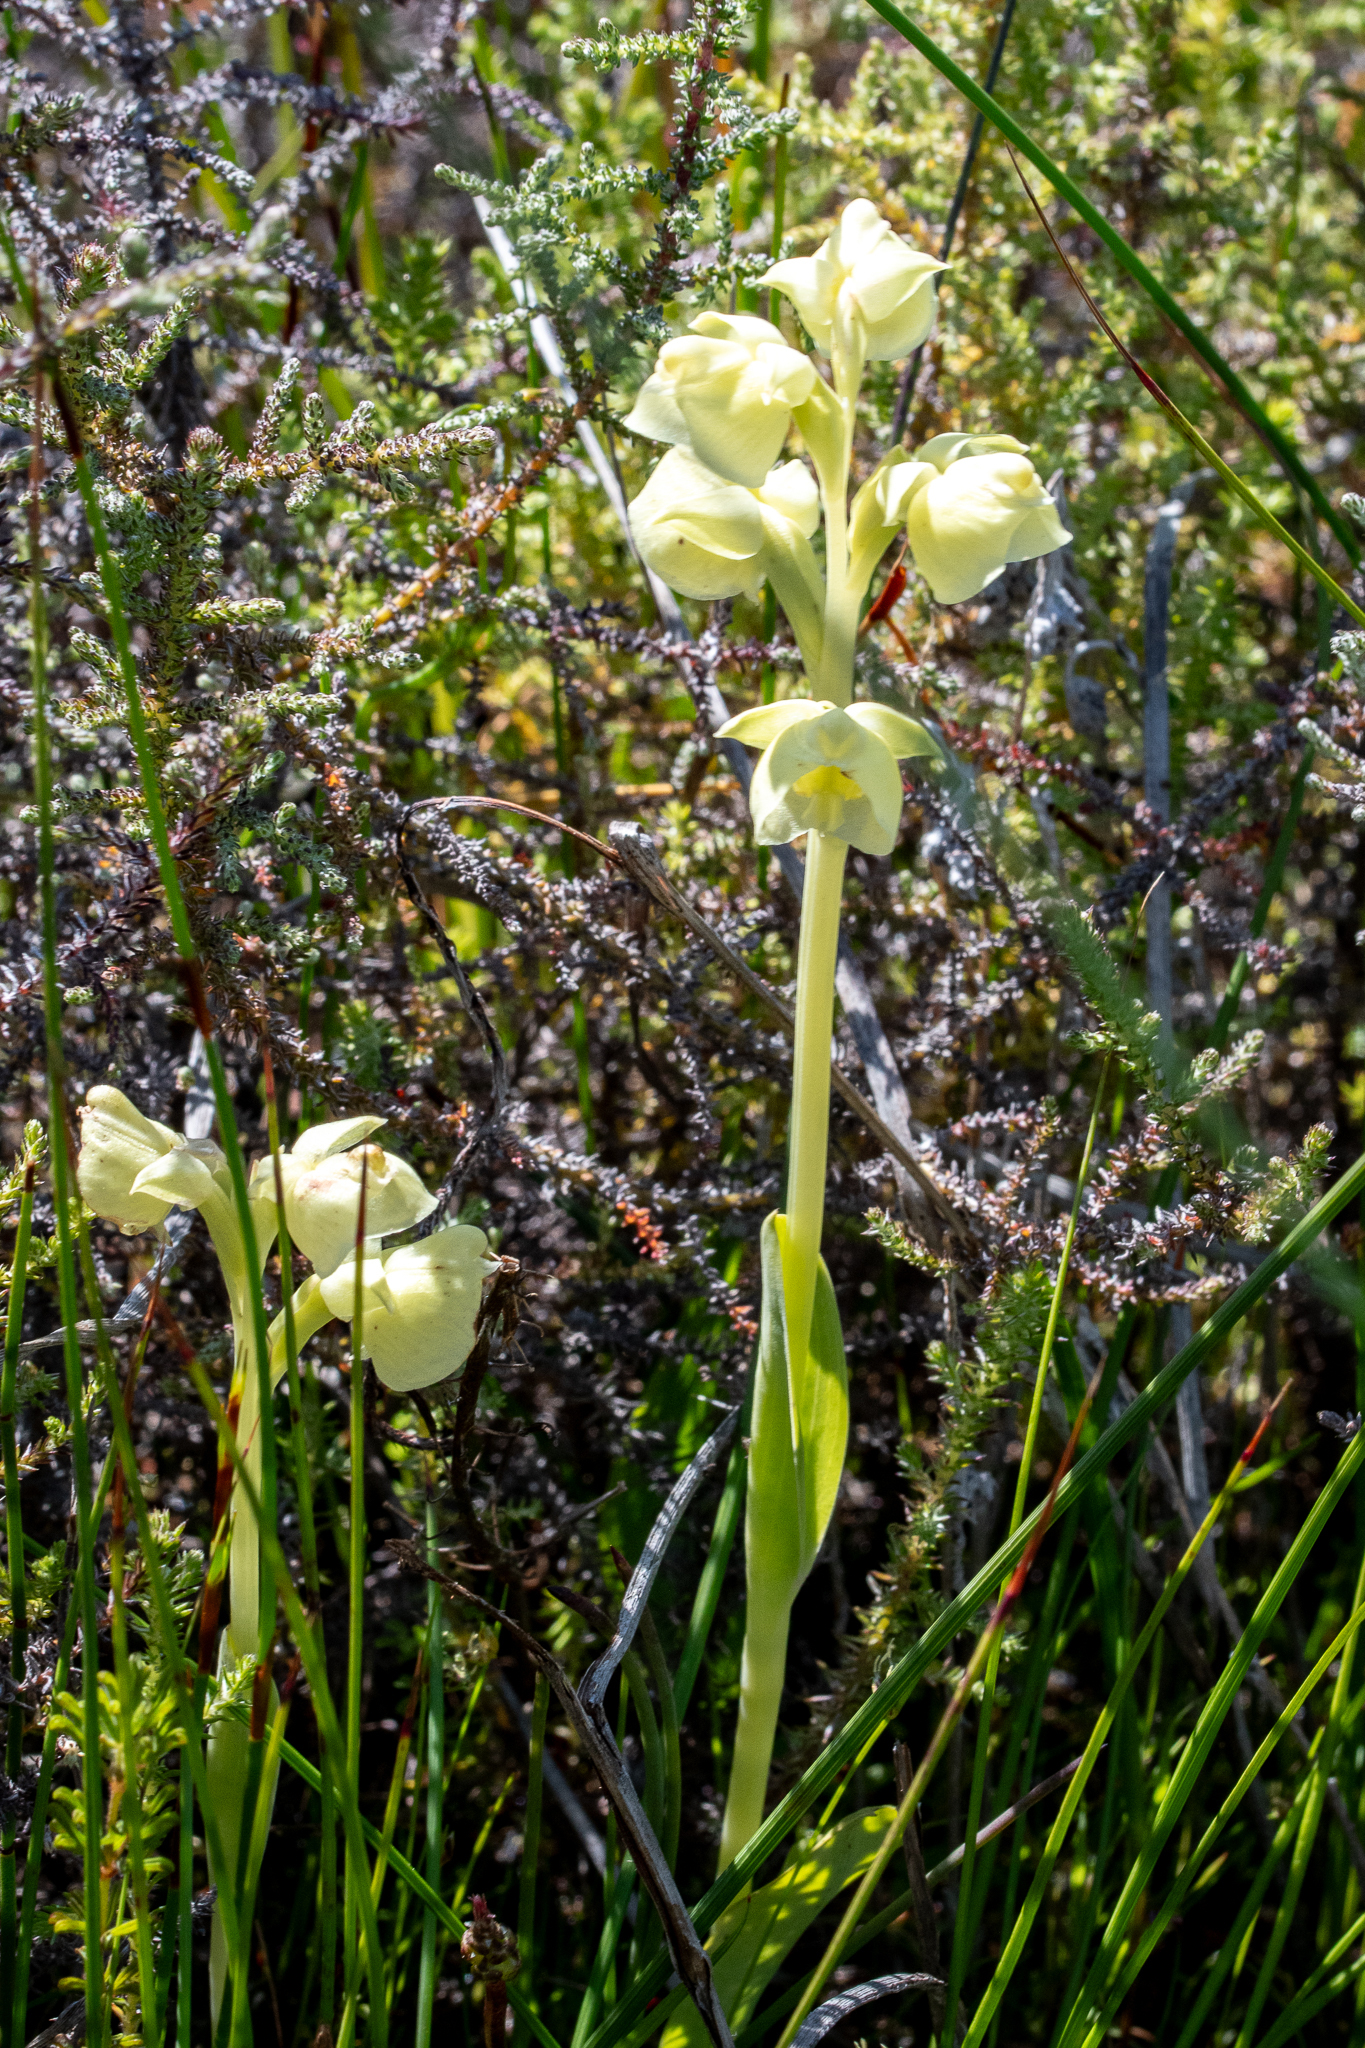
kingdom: Plantae
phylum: Tracheophyta
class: Liliopsida
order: Asparagales
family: Orchidaceae
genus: Pterygodium
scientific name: Pterygodium catholicum
